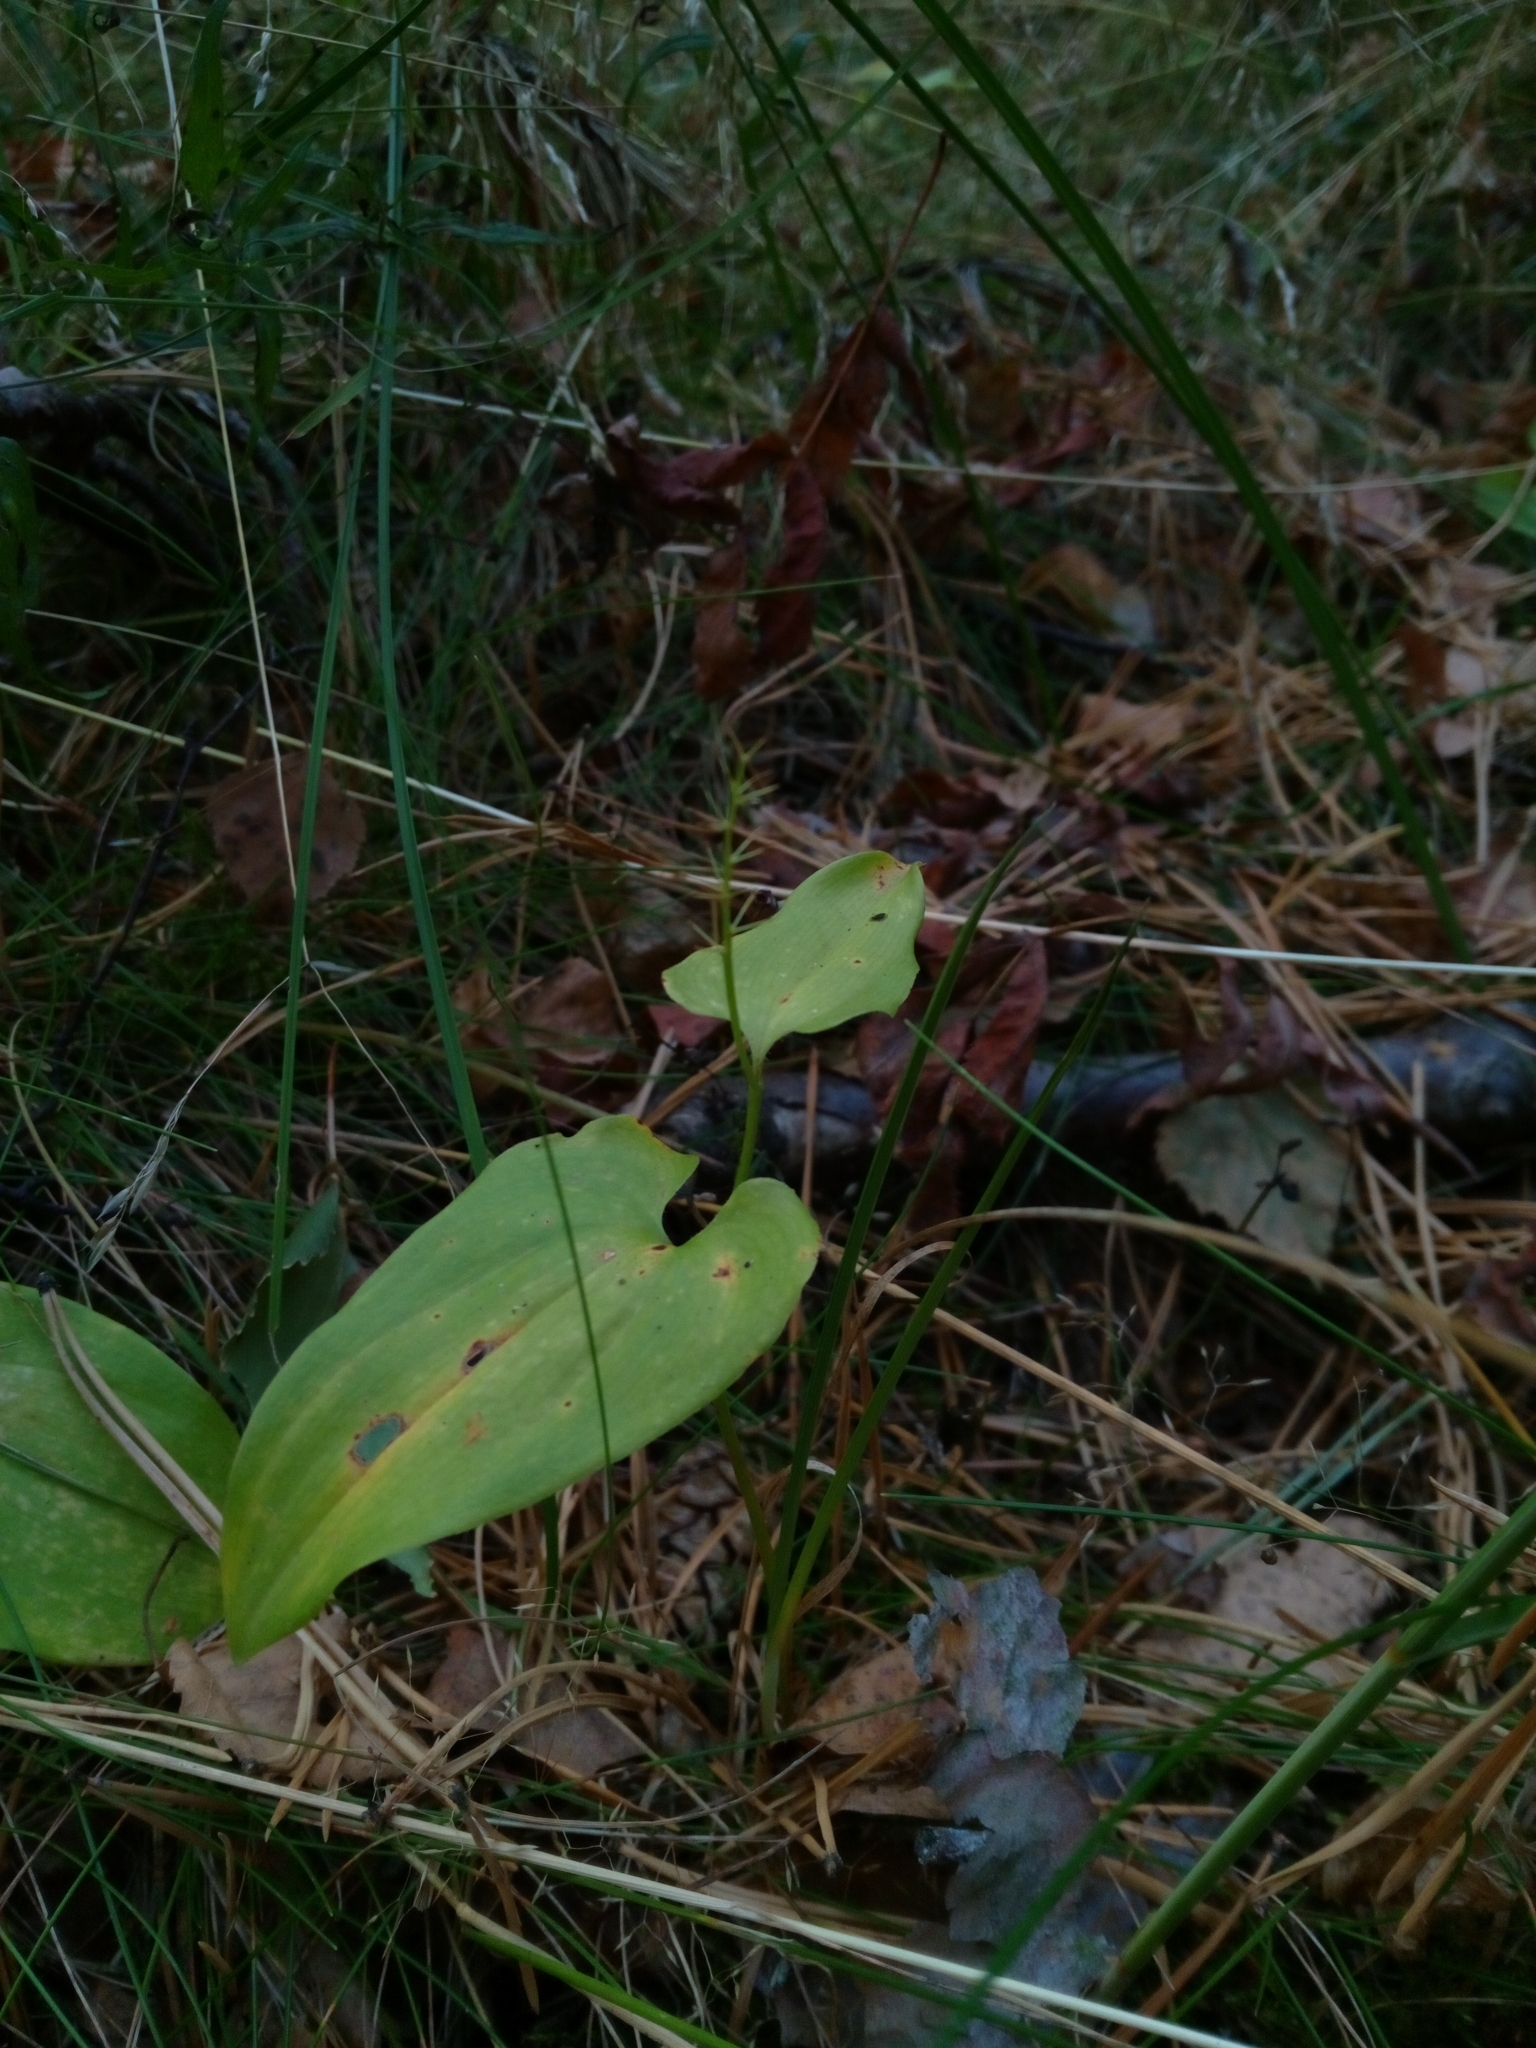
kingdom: Plantae
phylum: Tracheophyta
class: Liliopsida
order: Asparagales
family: Asparagaceae
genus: Maianthemum
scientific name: Maianthemum bifolium
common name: May lily
